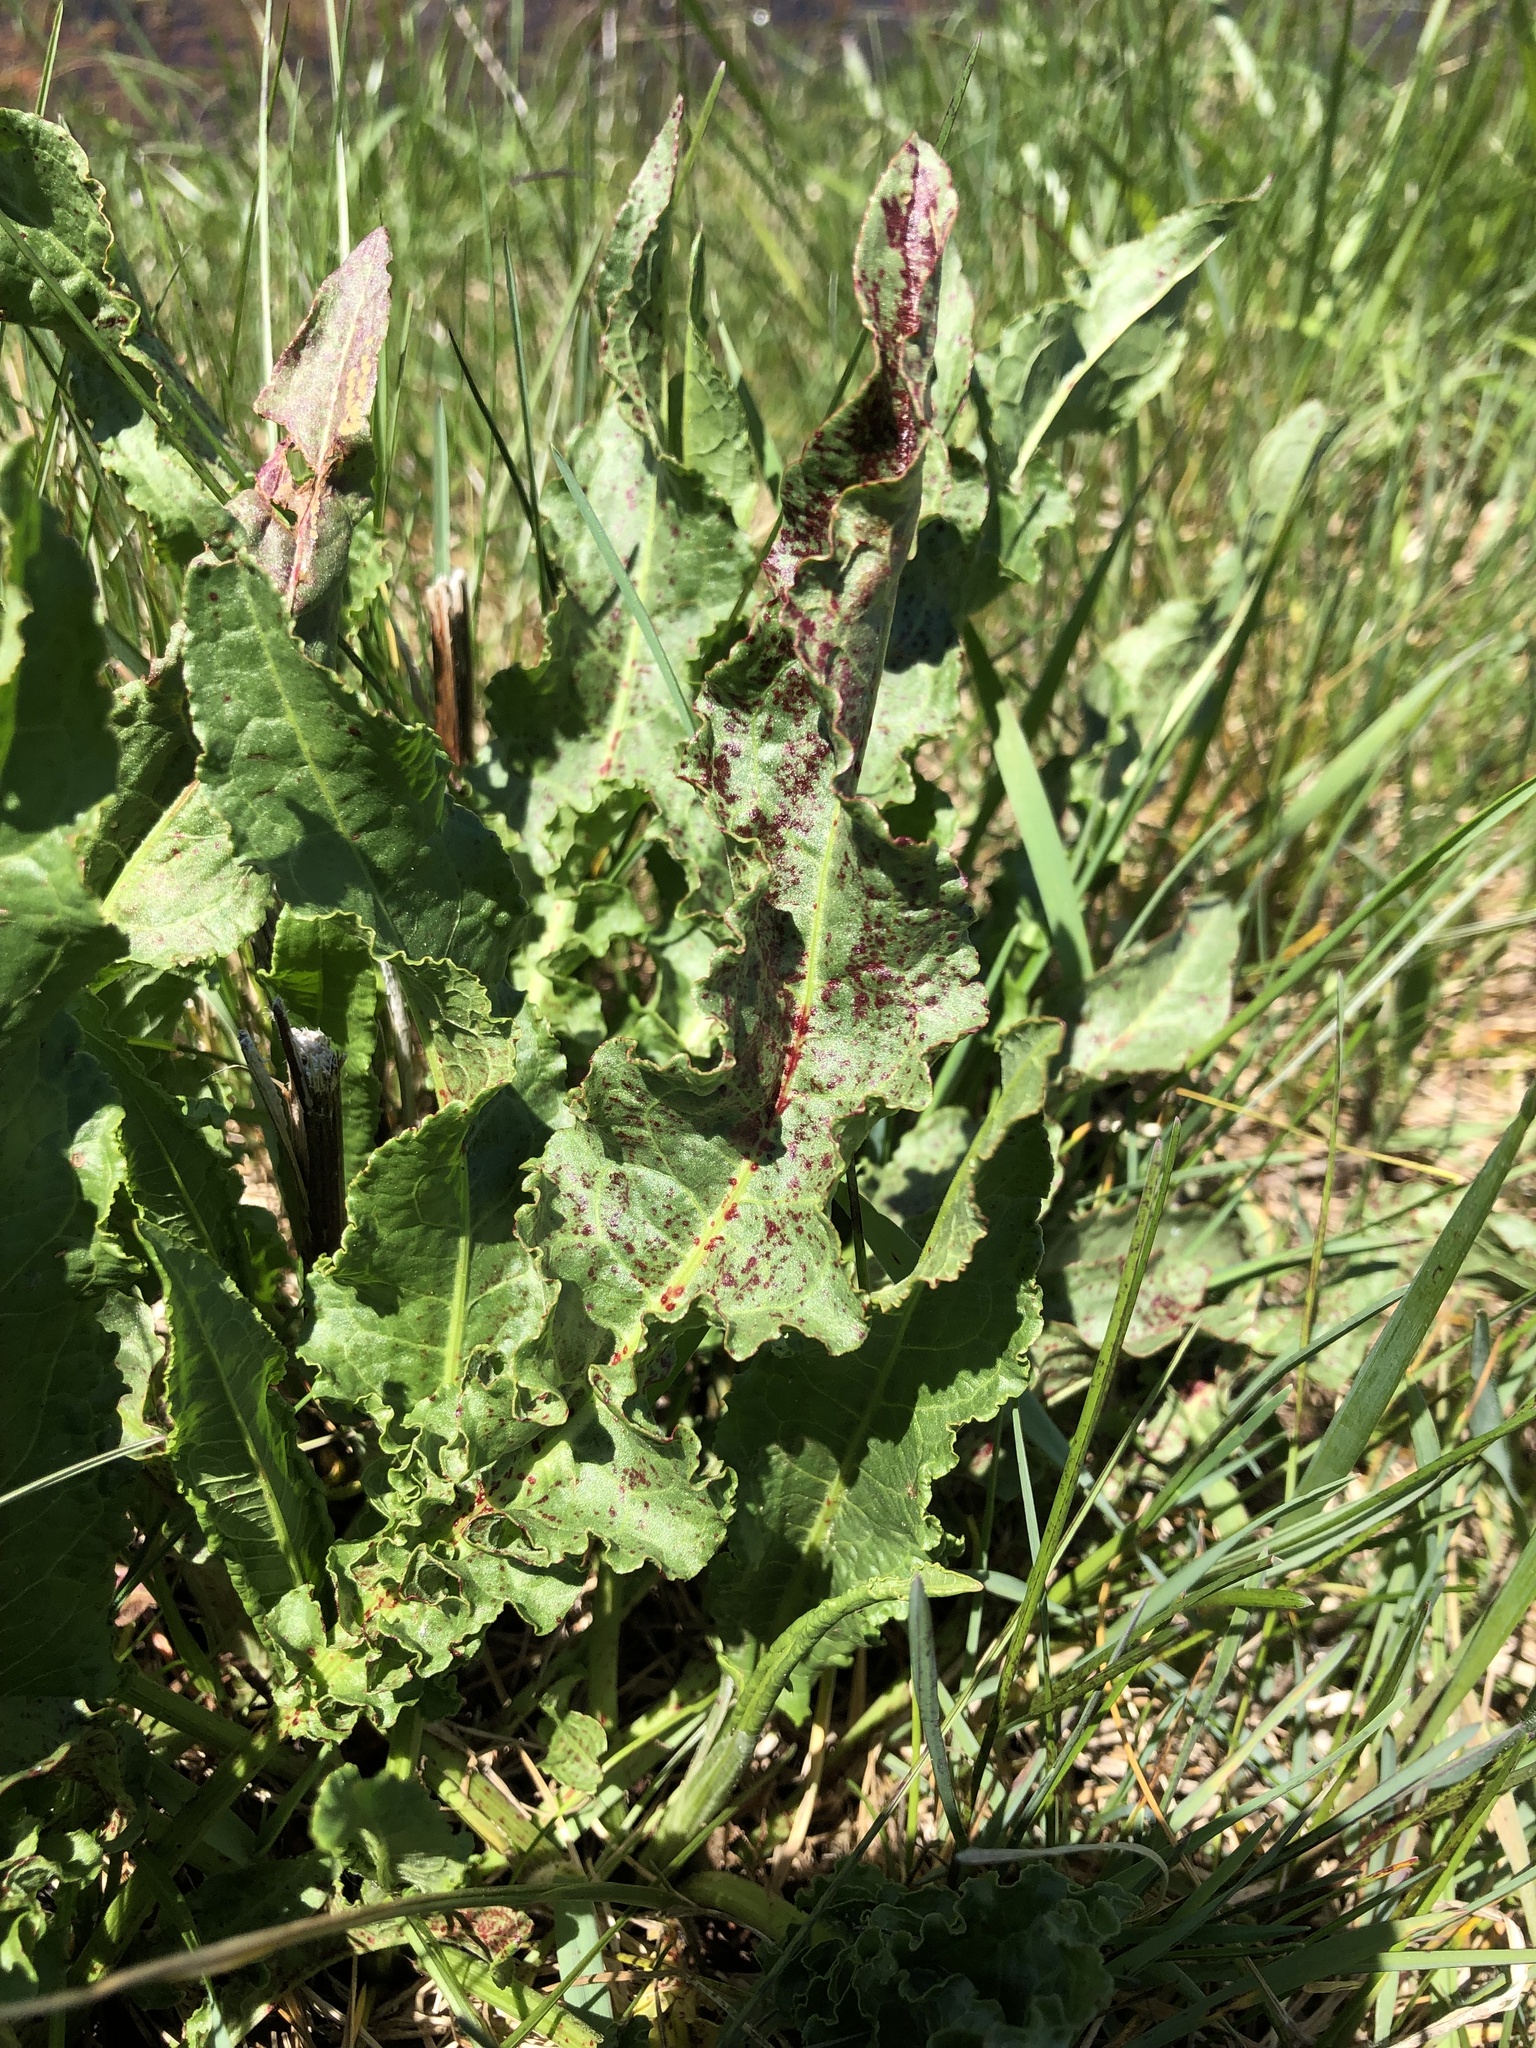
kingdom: Plantae
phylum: Tracheophyta
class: Magnoliopsida
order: Caryophyllales
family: Polygonaceae
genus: Rumex
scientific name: Rumex crispus
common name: Curled dock
